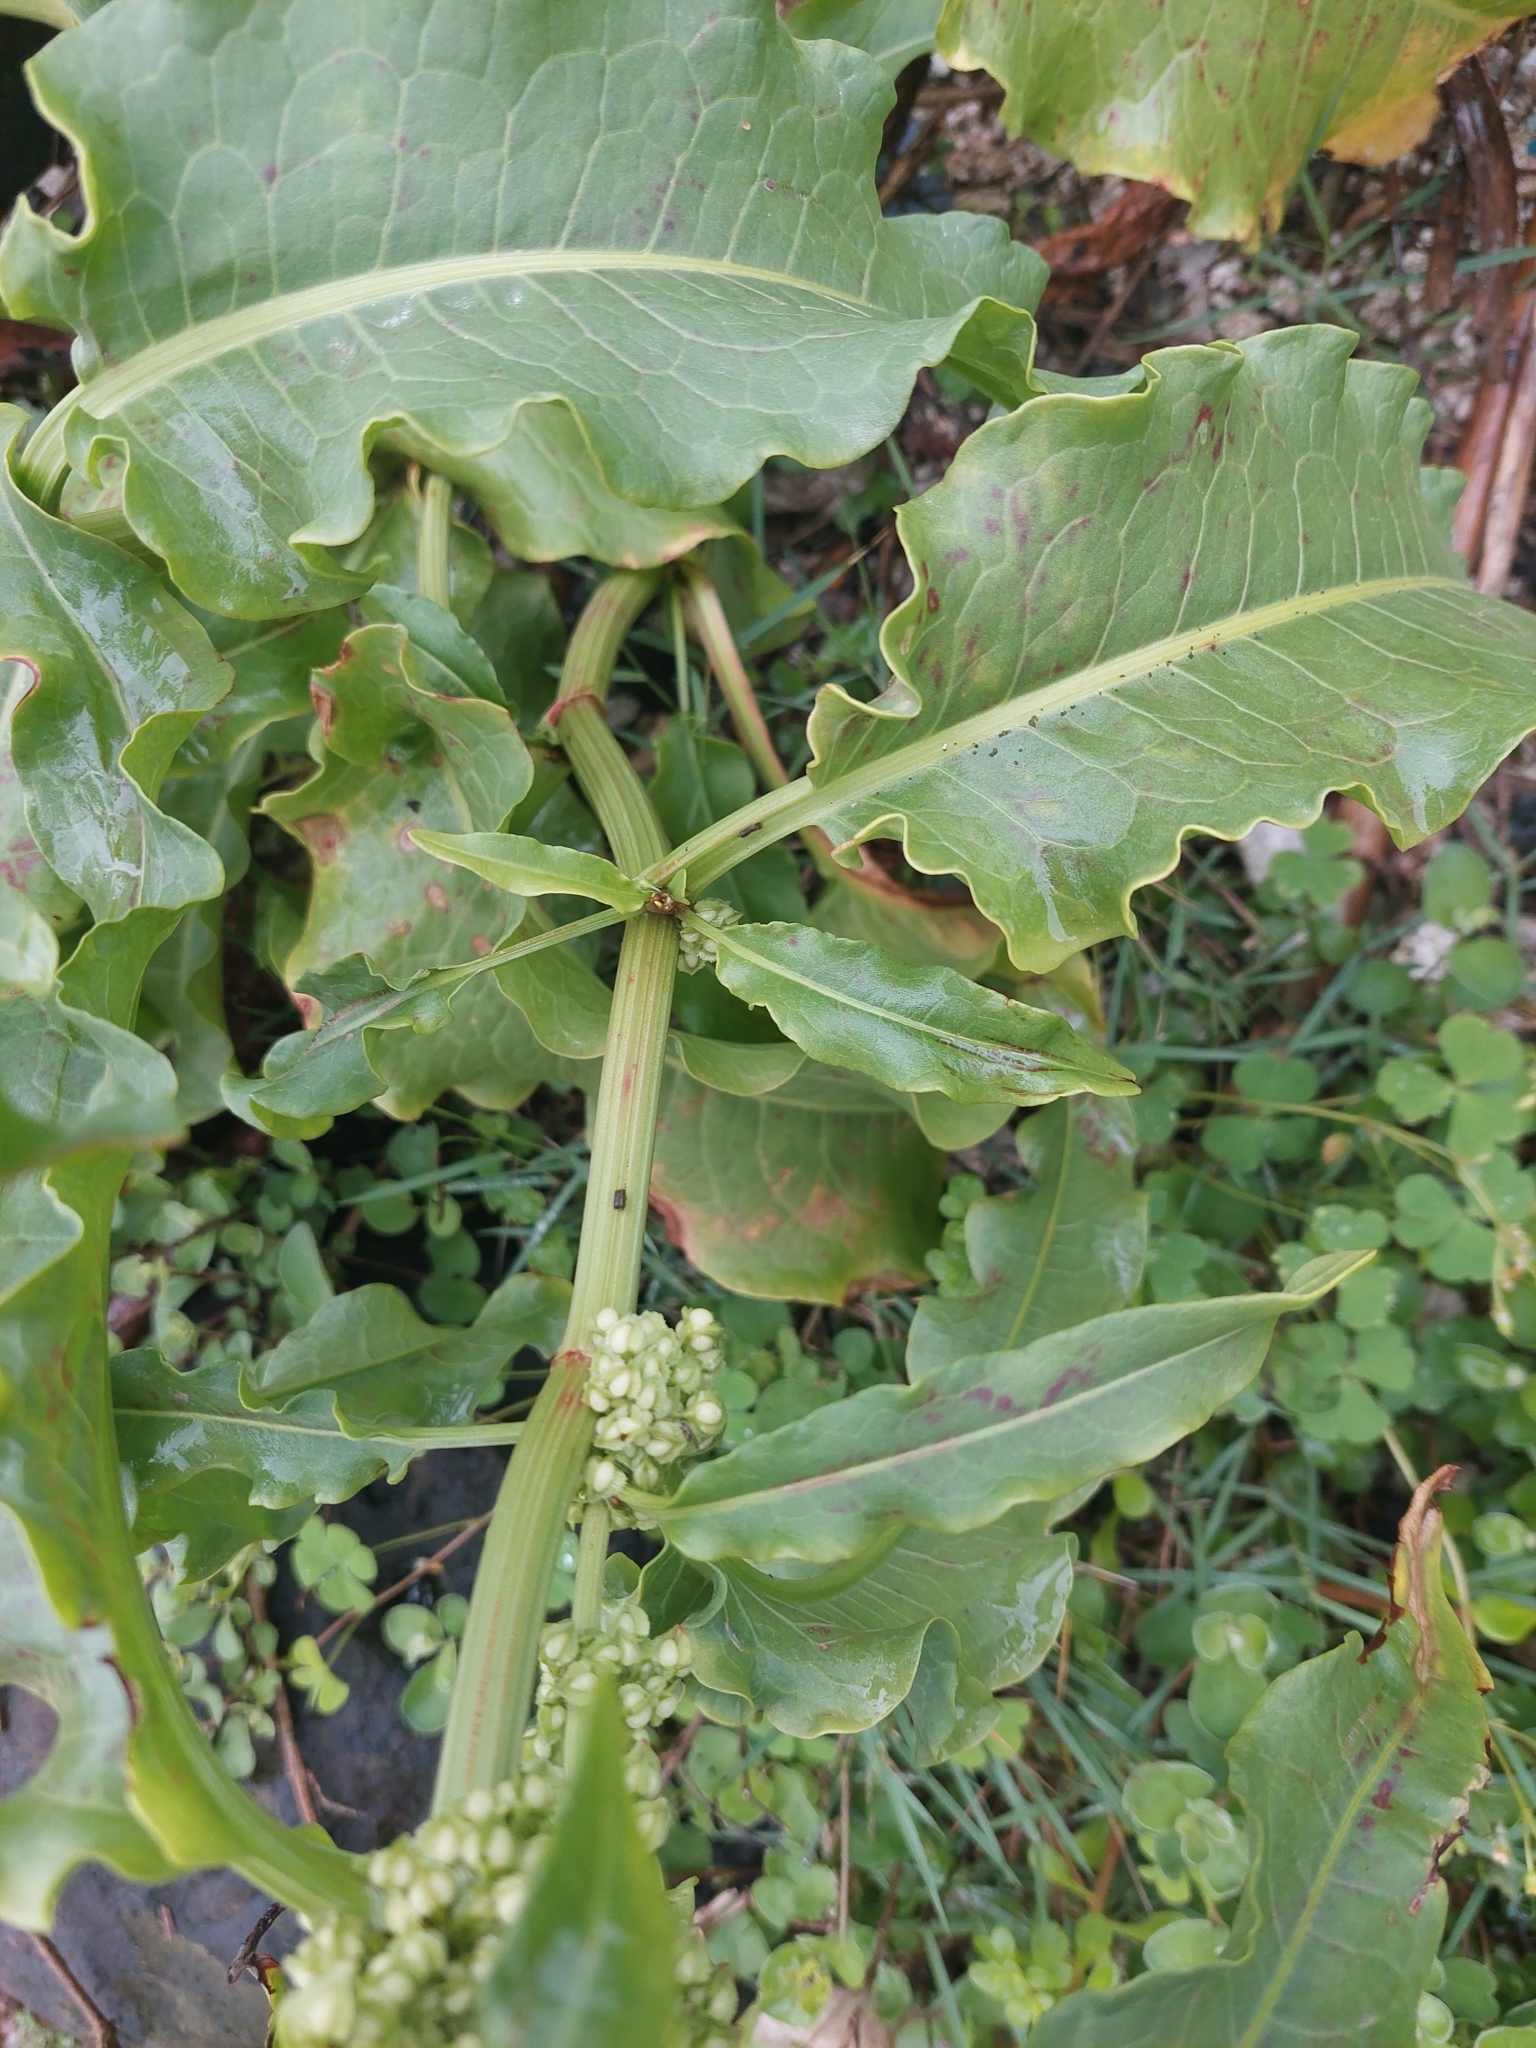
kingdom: Plantae
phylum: Tracheophyta
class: Magnoliopsida
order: Caryophyllales
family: Polygonaceae
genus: Rumex
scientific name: Rumex japonicus
